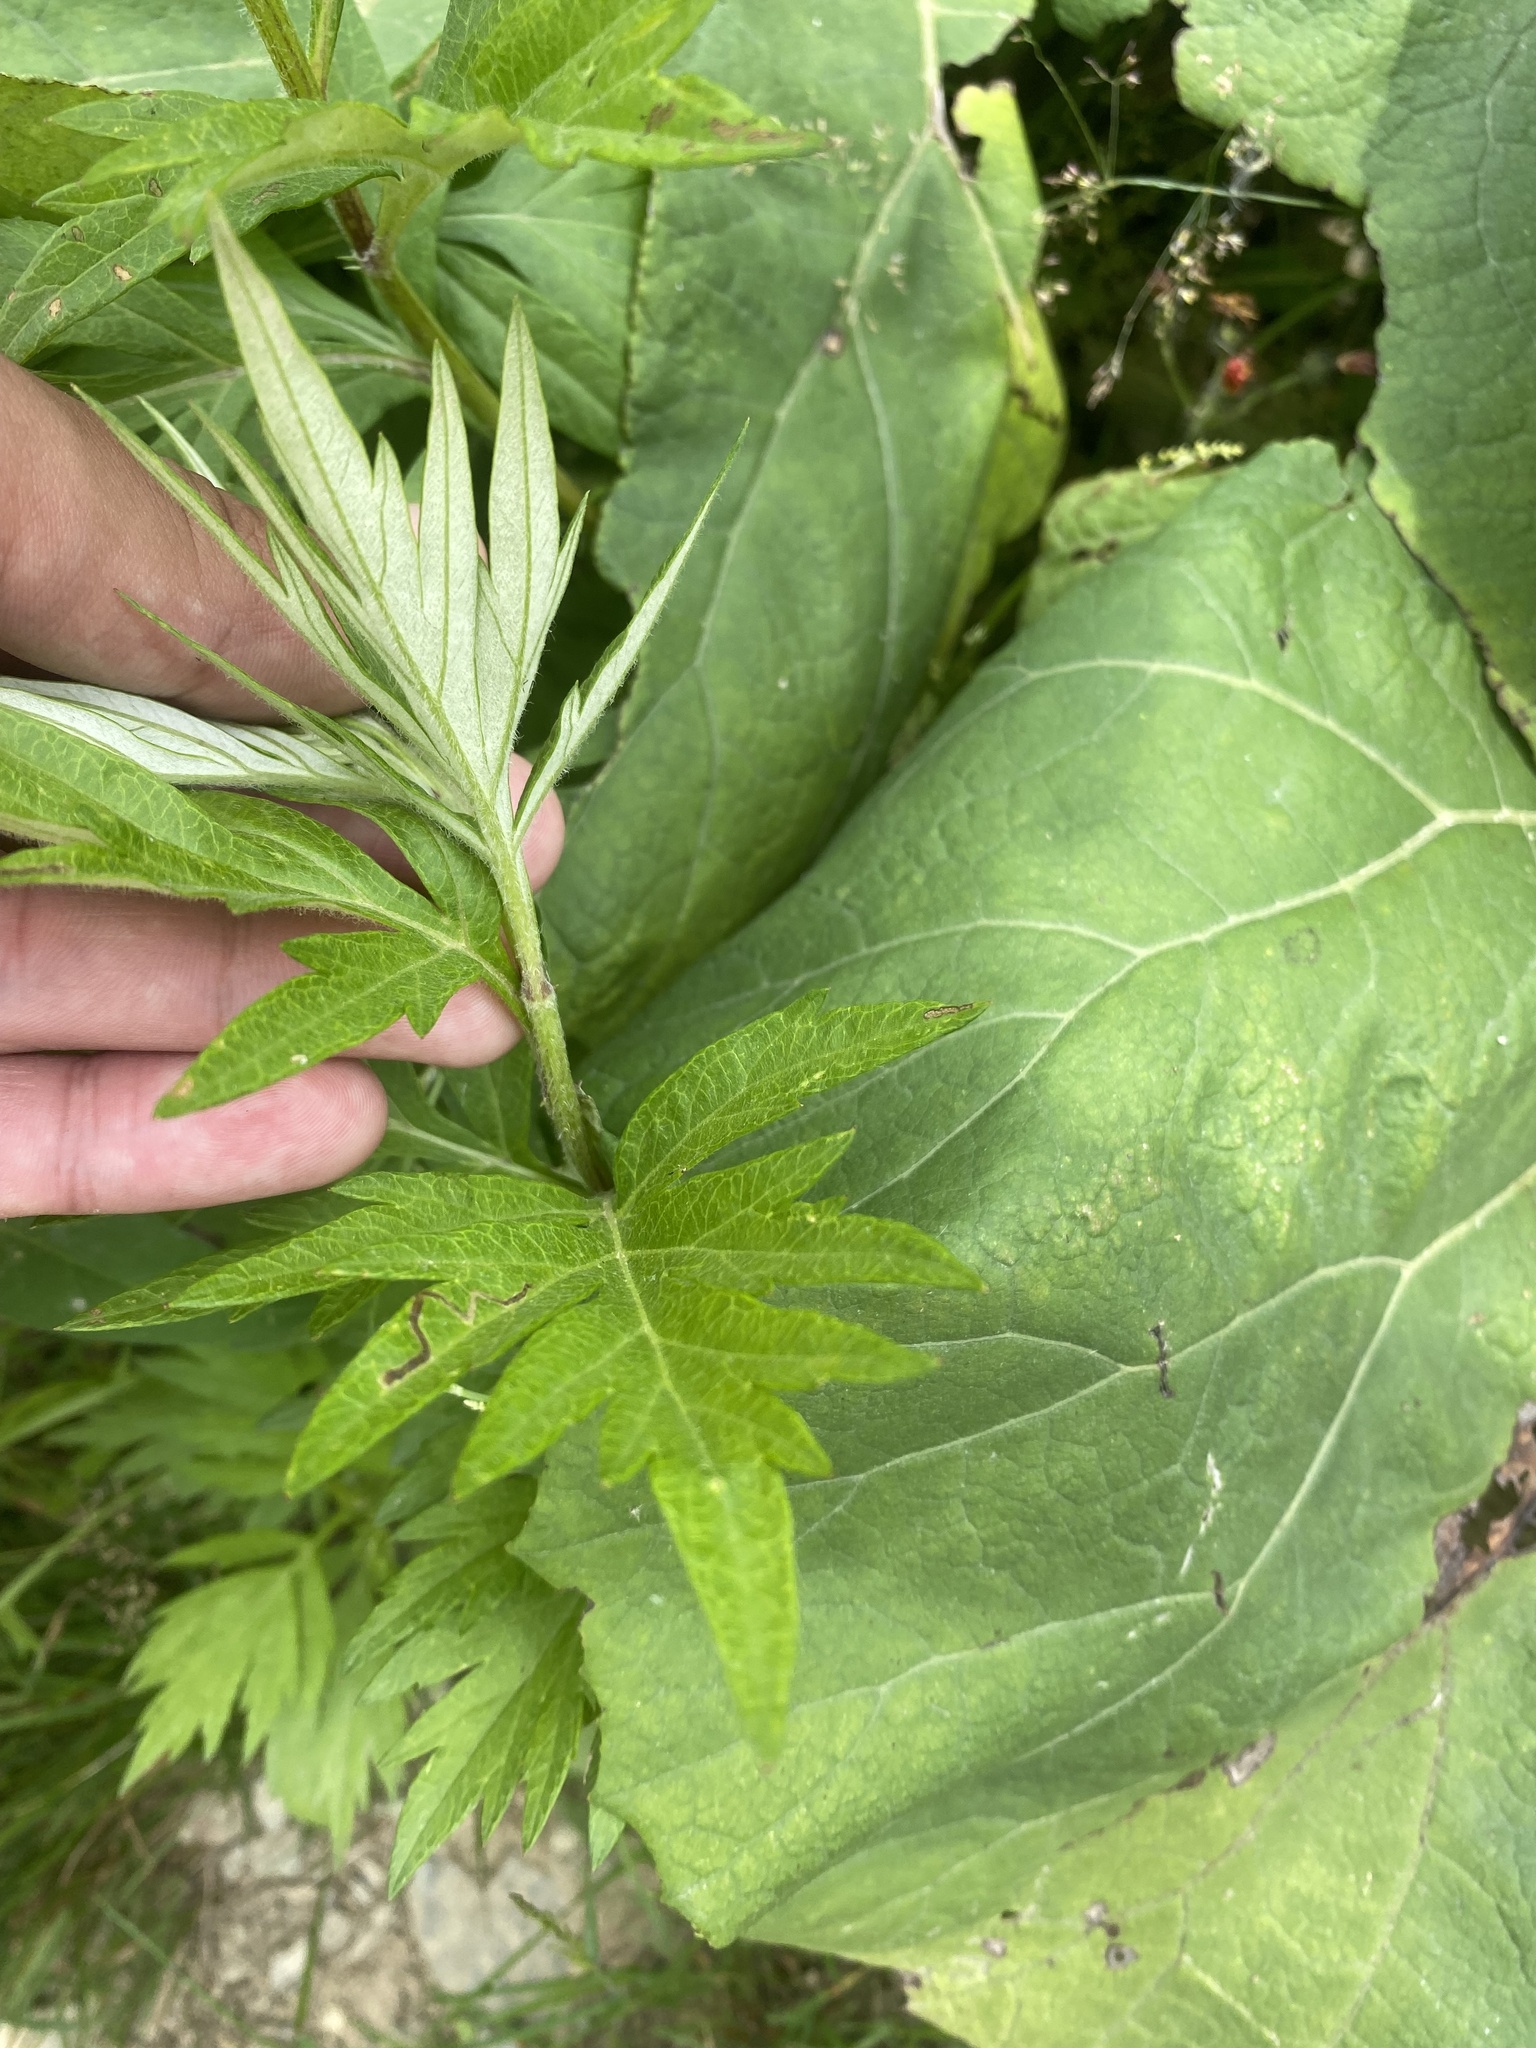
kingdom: Plantae
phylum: Tracheophyta
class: Magnoliopsida
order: Asterales
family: Asteraceae
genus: Artemisia
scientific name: Artemisia vulgaris
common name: Mugwort
